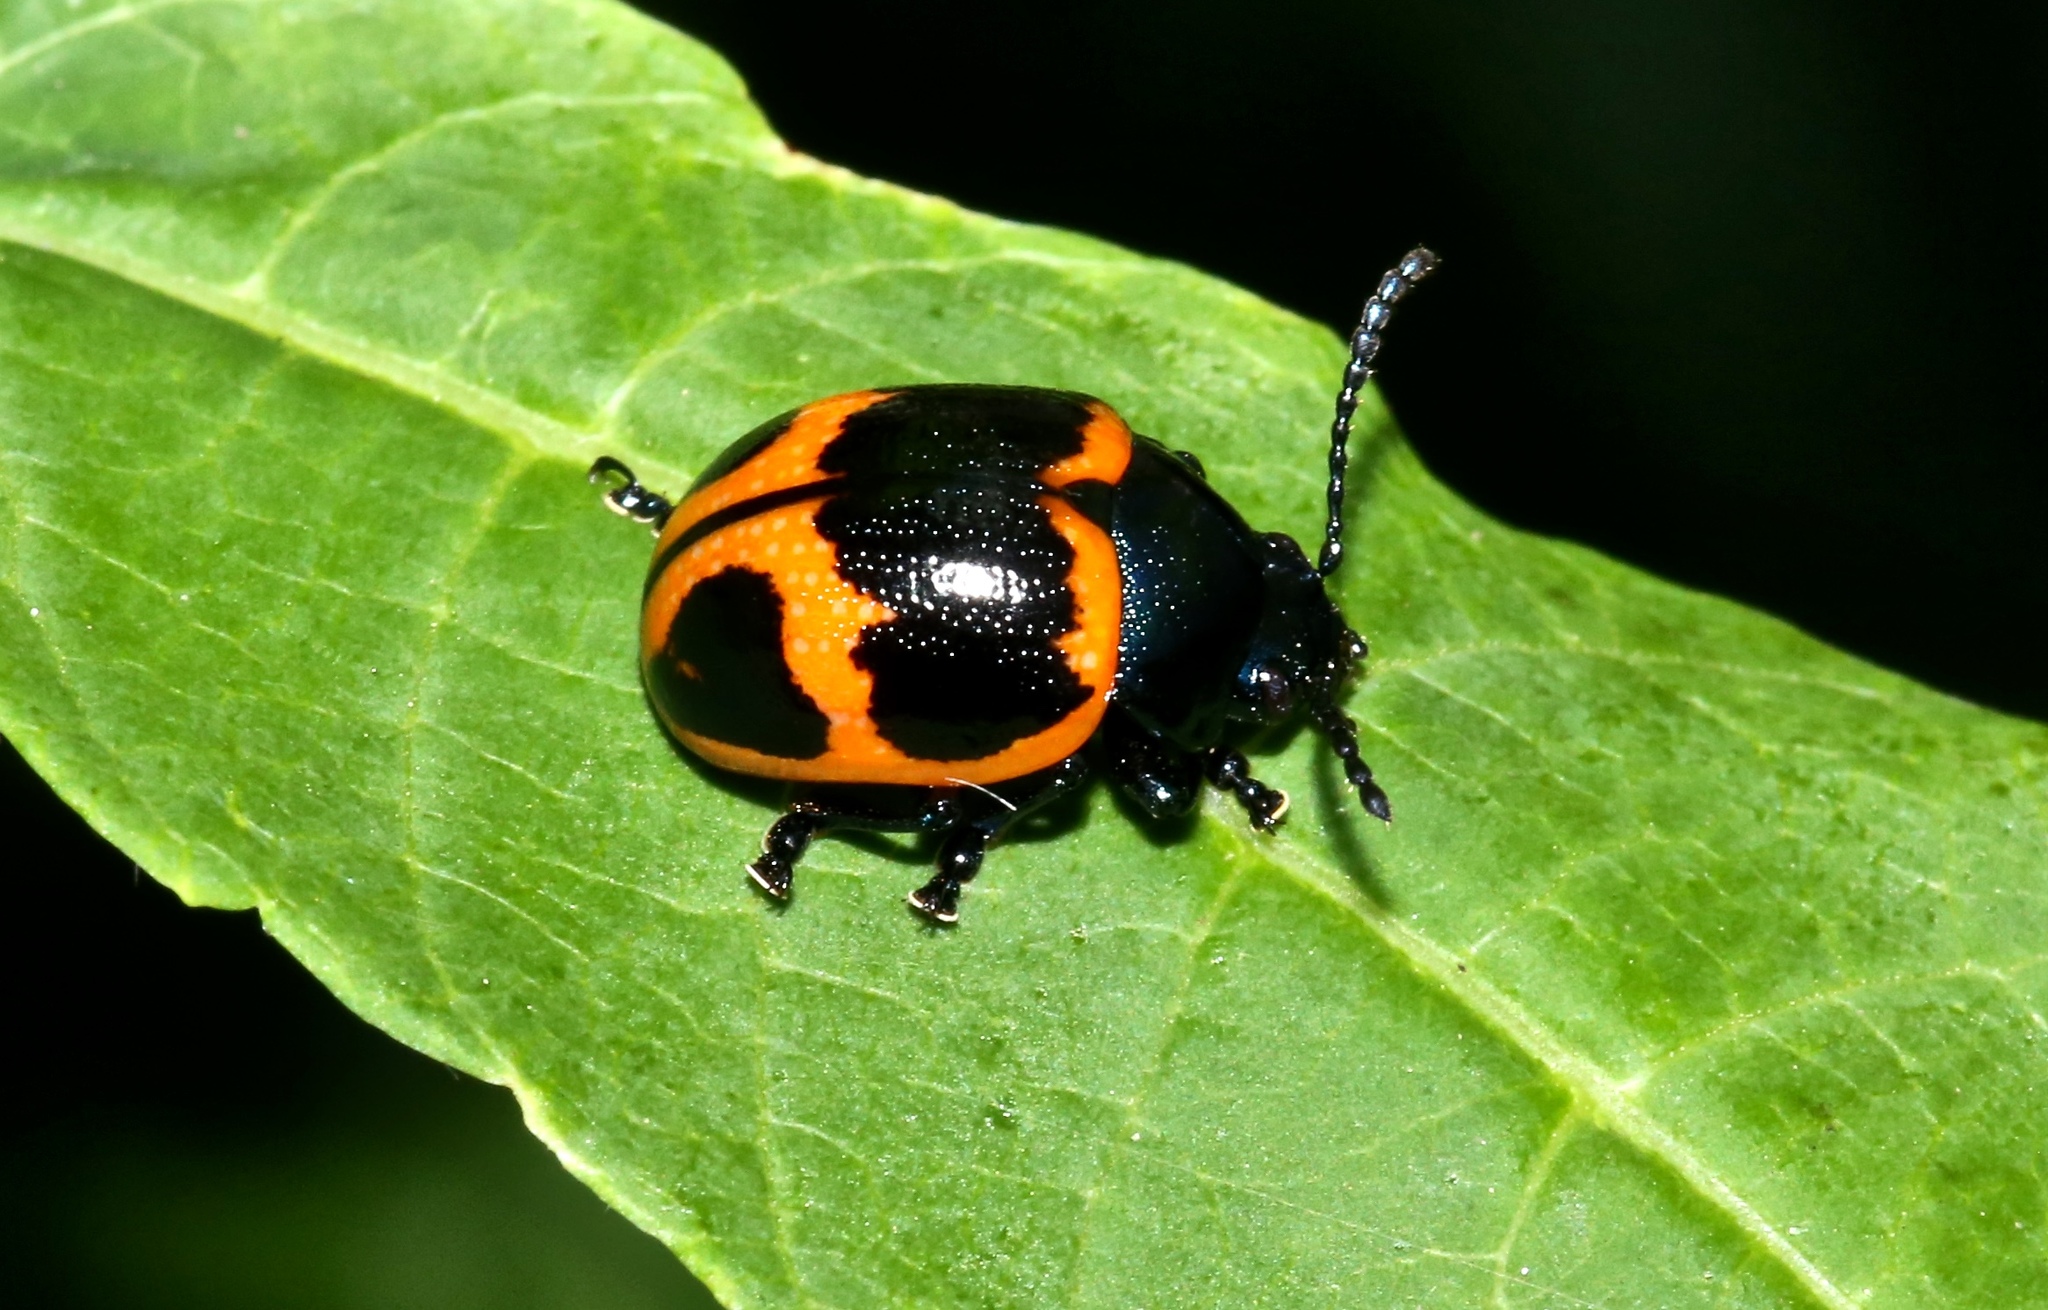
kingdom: Animalia
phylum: Arthropoda
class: Insecta
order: Coleoptera
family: Chrysomelidae
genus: Labidomera
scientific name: Labidomera clivicollis
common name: Swamp milkweed leaf beetle
